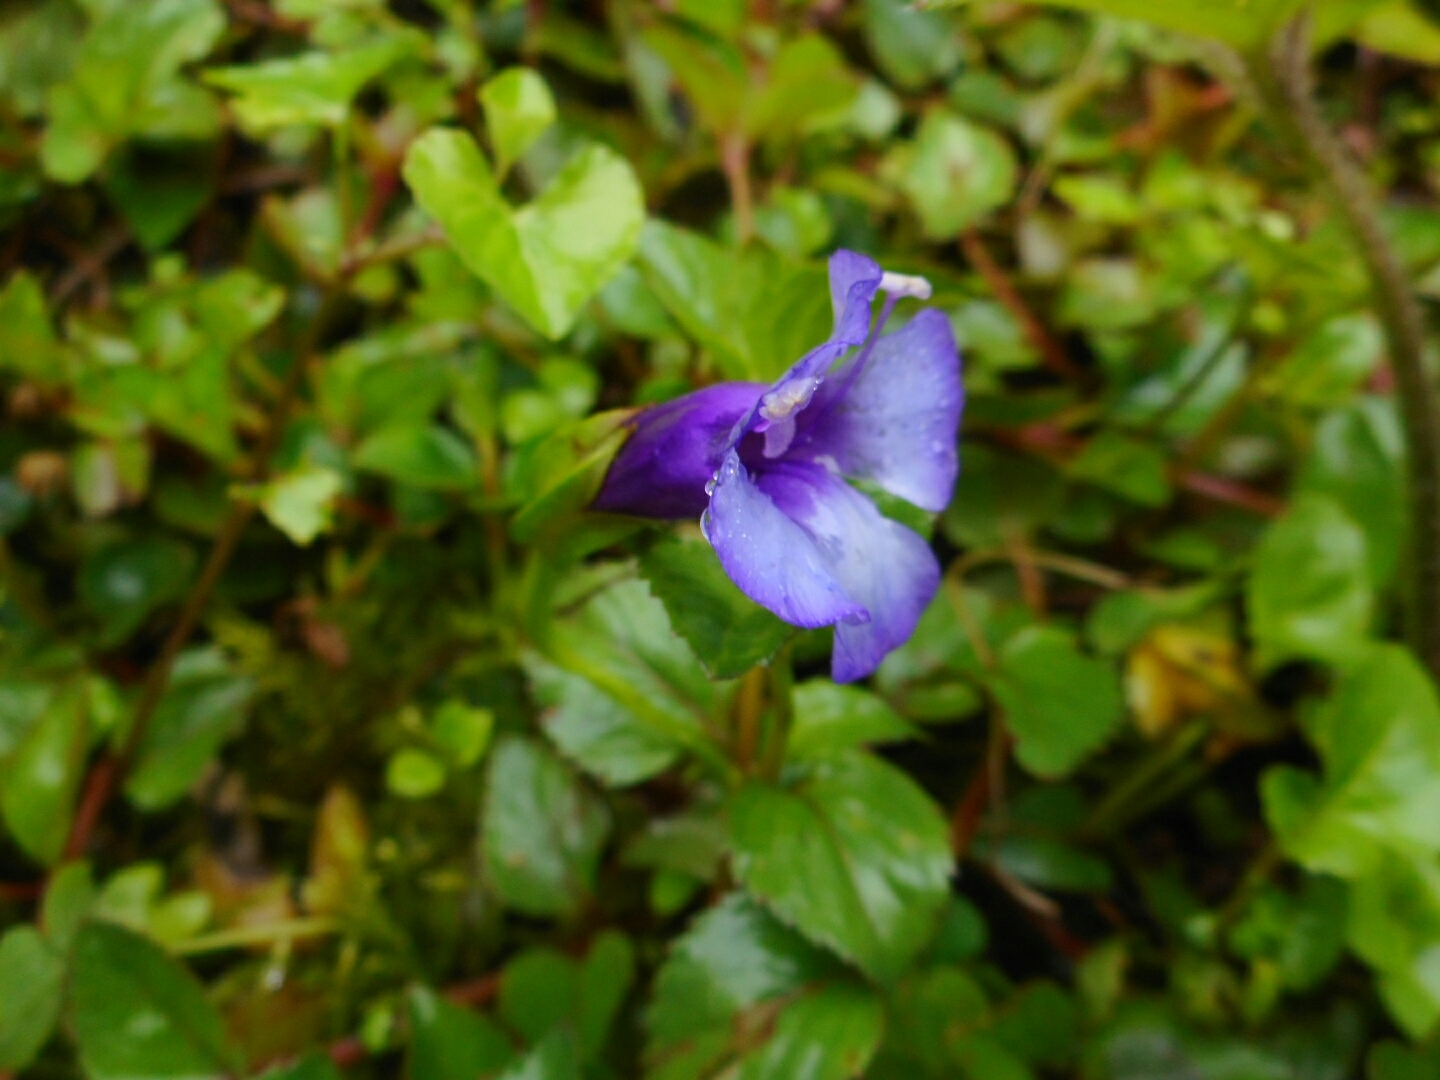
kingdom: Plantae
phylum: Tracheophyta
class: Magnoliopsida
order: Lamiales
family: Linderniaceae
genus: Torenia
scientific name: Torenia concolor
